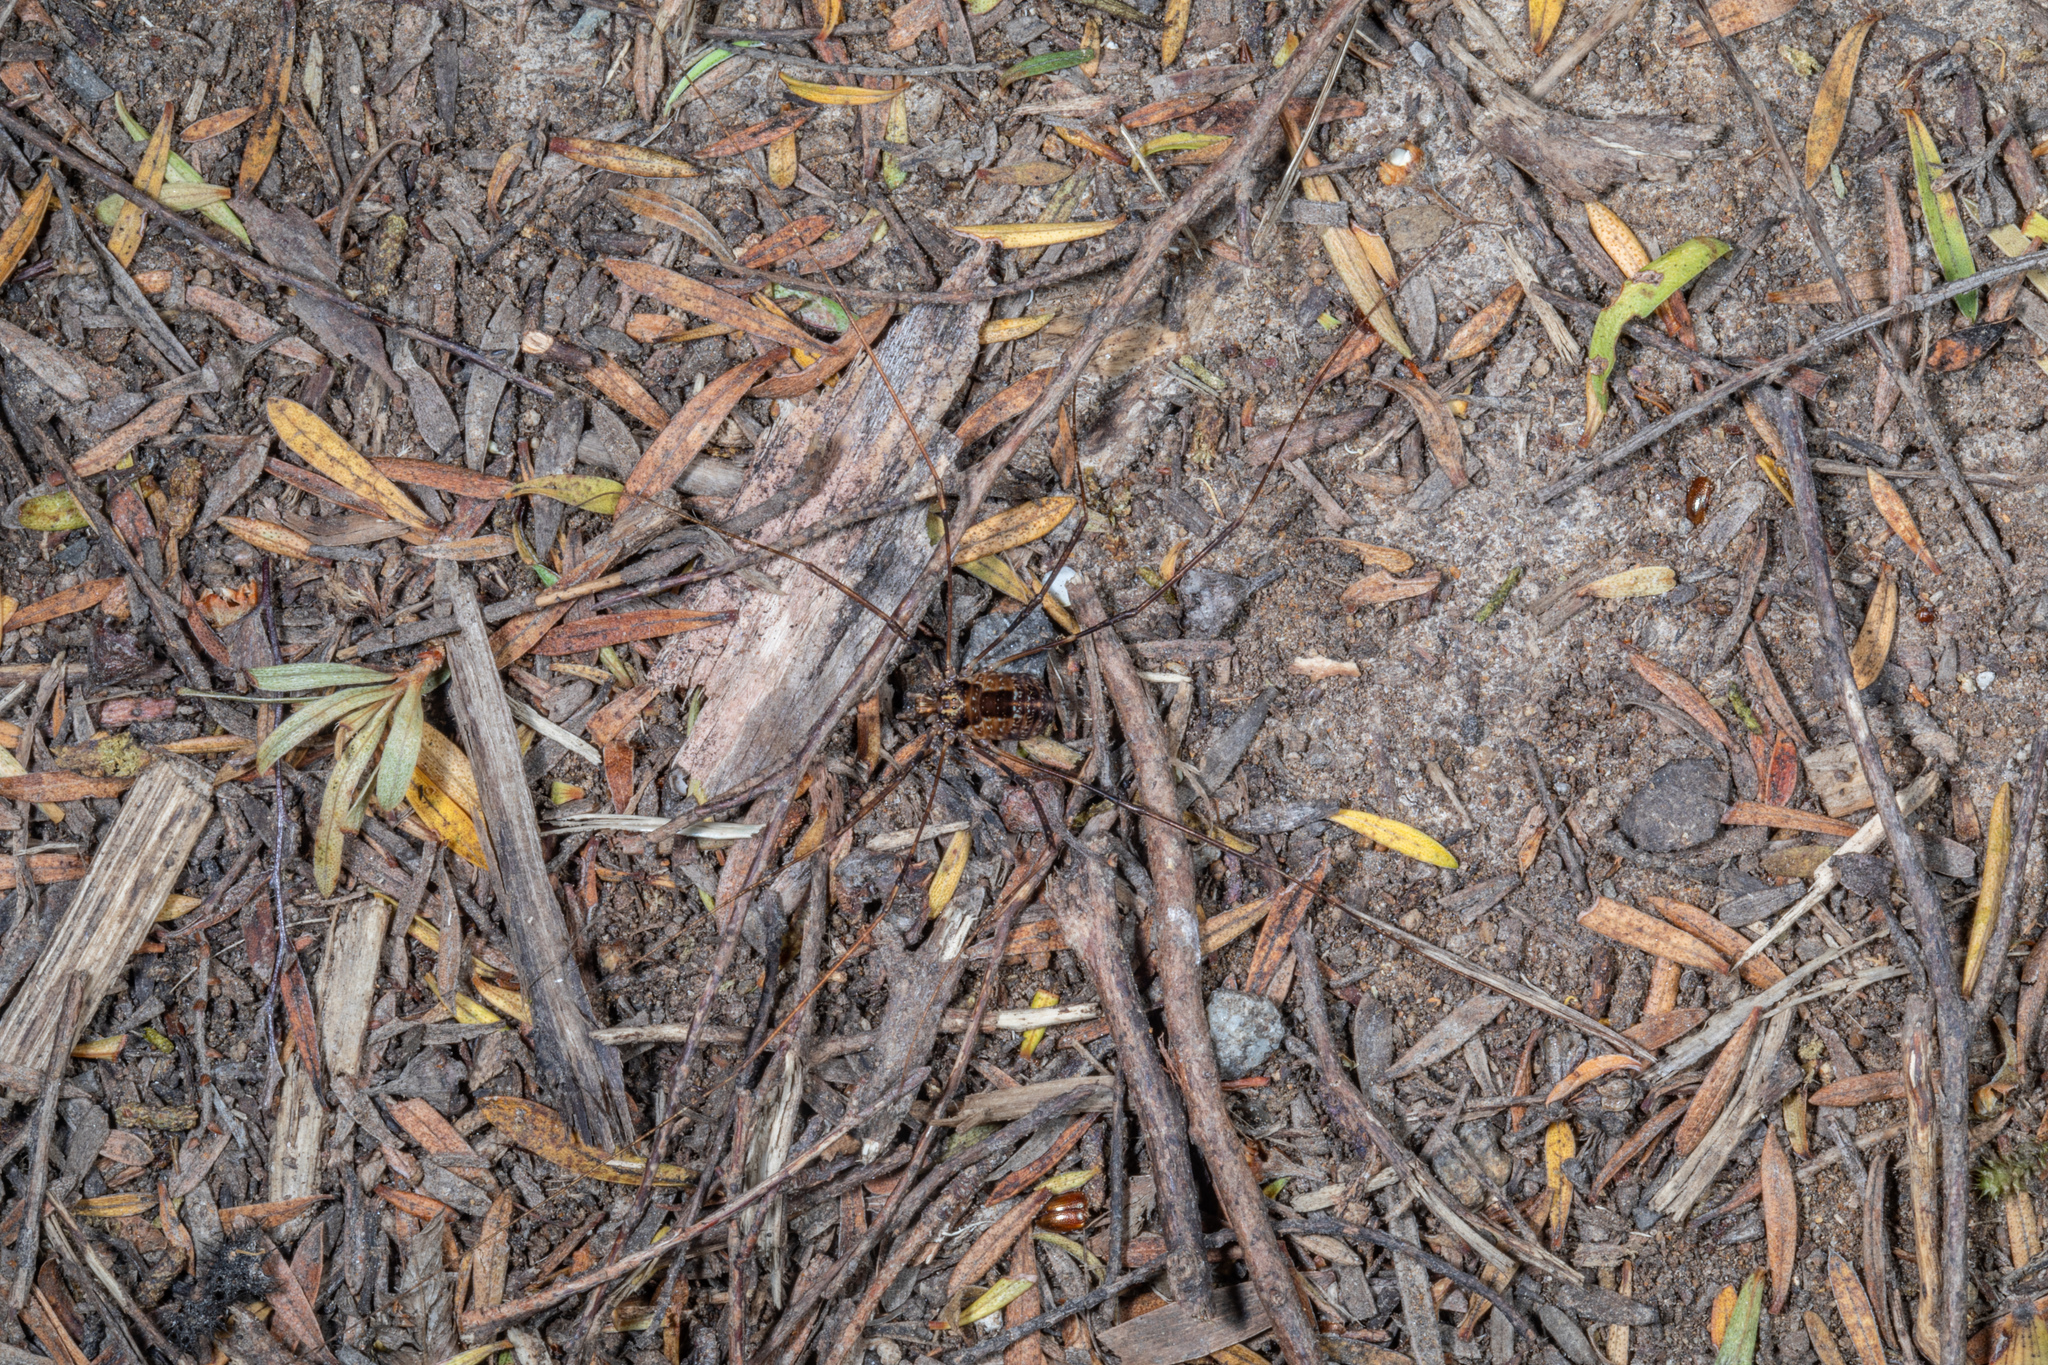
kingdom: Animalia
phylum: Arthropoda
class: Arachnida
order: Opiliones
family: Neopilionidae
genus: Forsteropsalis
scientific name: Forsteropsalis pureora
